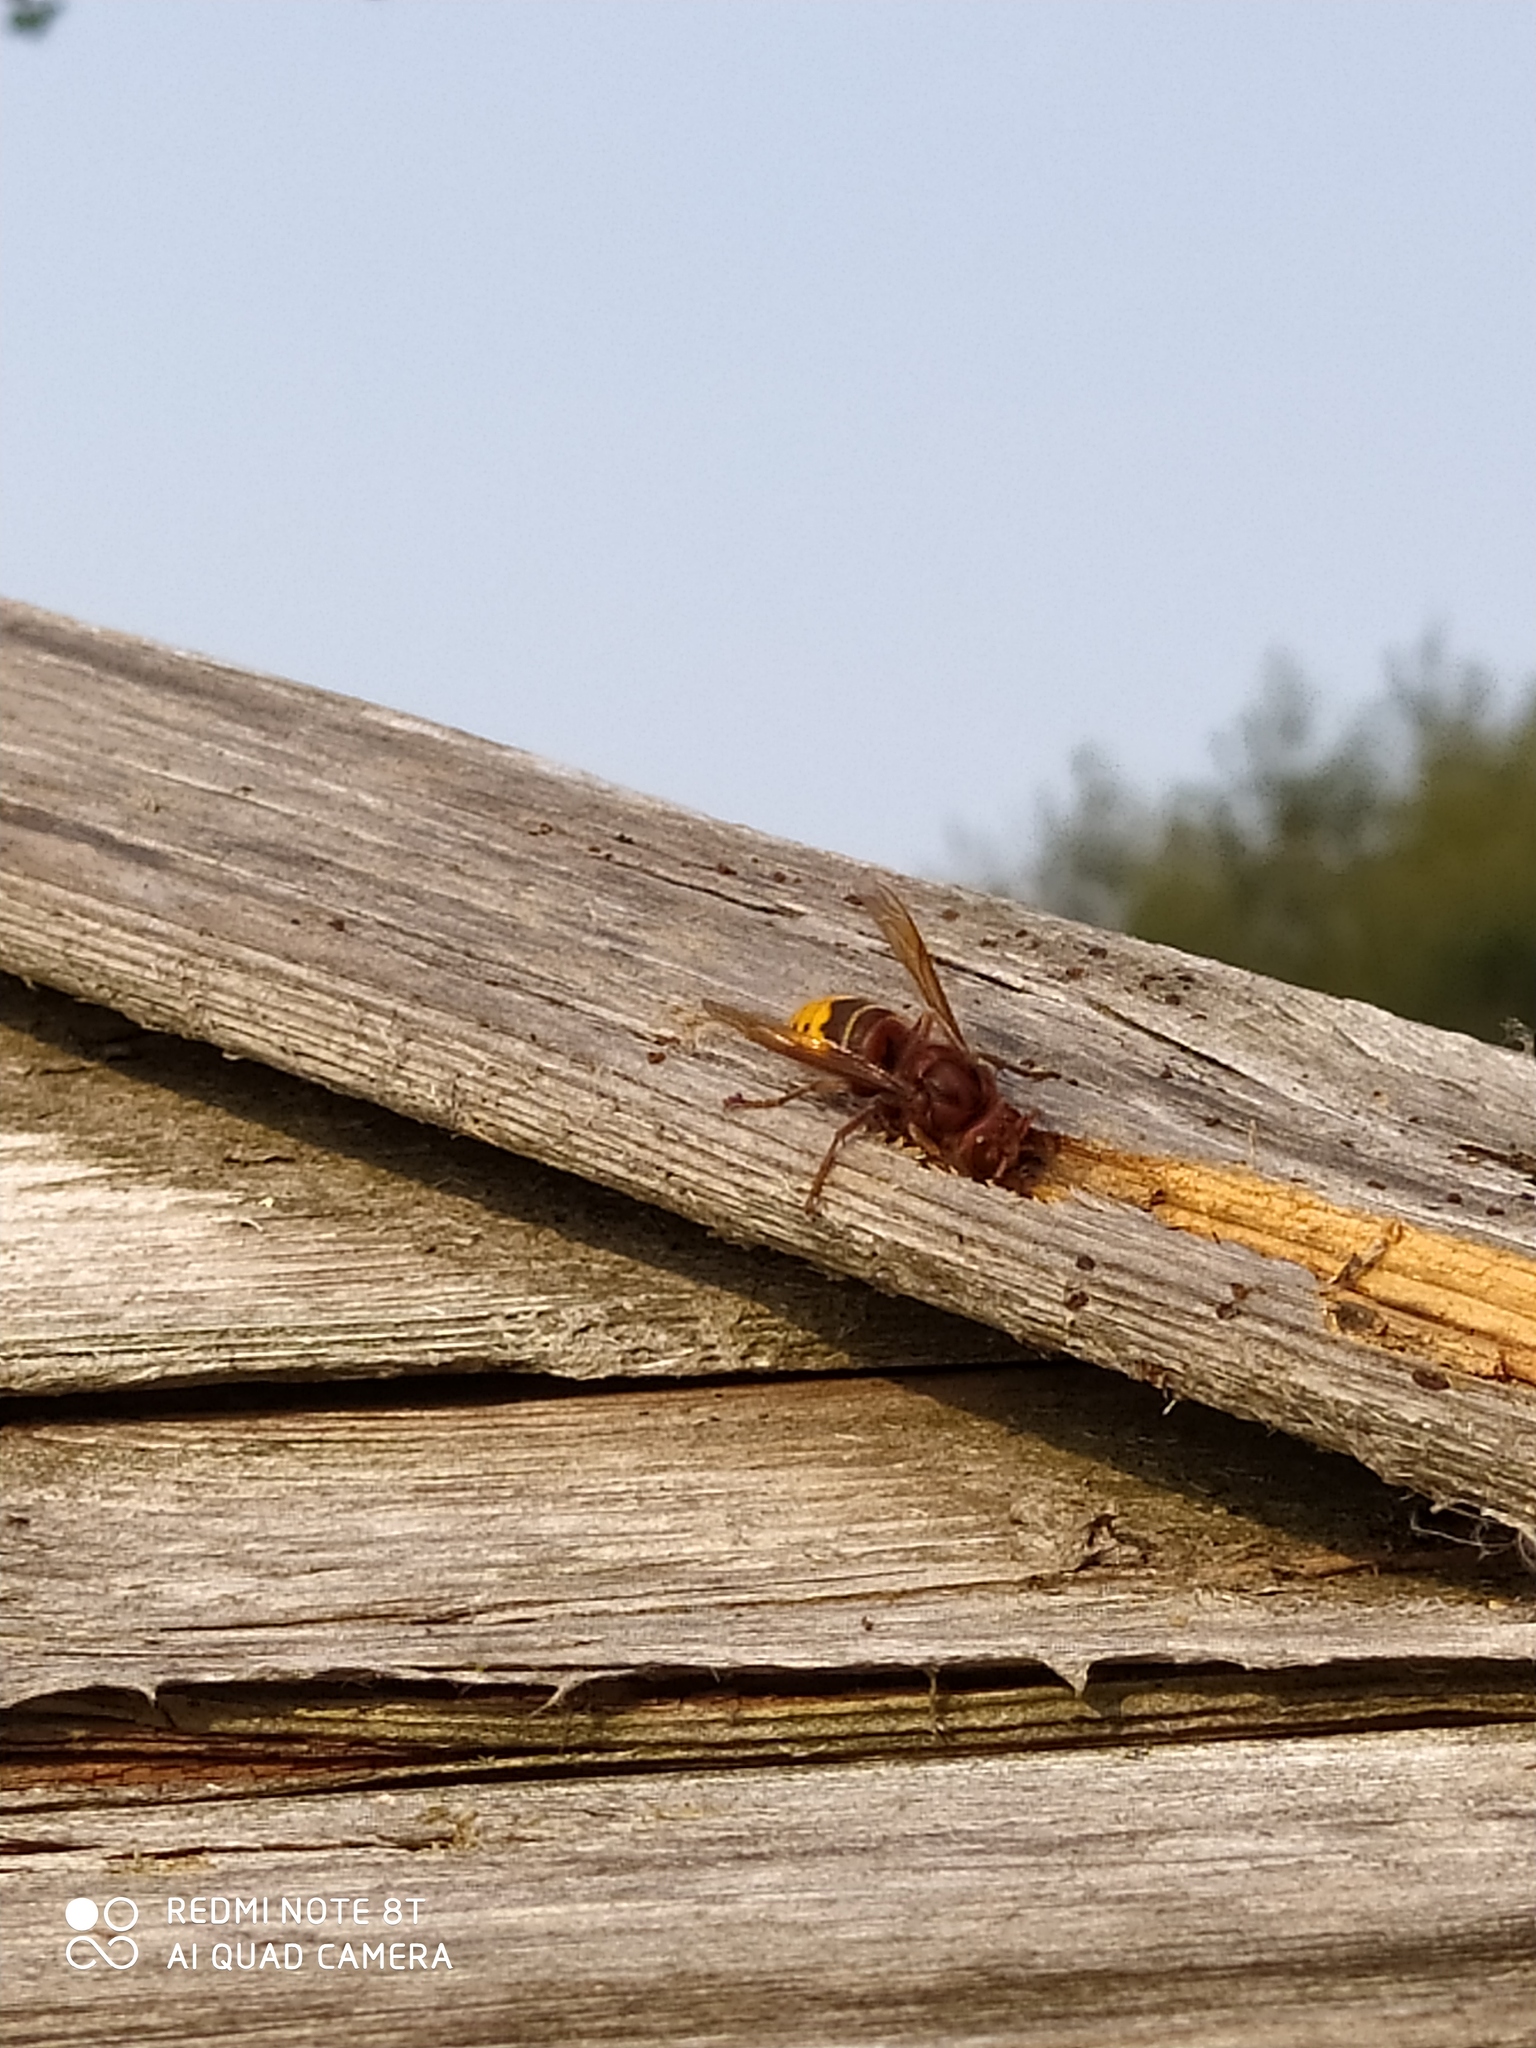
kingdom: Animalia
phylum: Arthropoda
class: Insecta
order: Hymenoptera
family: Vespidae
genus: Vespa
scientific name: Vespa crabro
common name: Hornet
